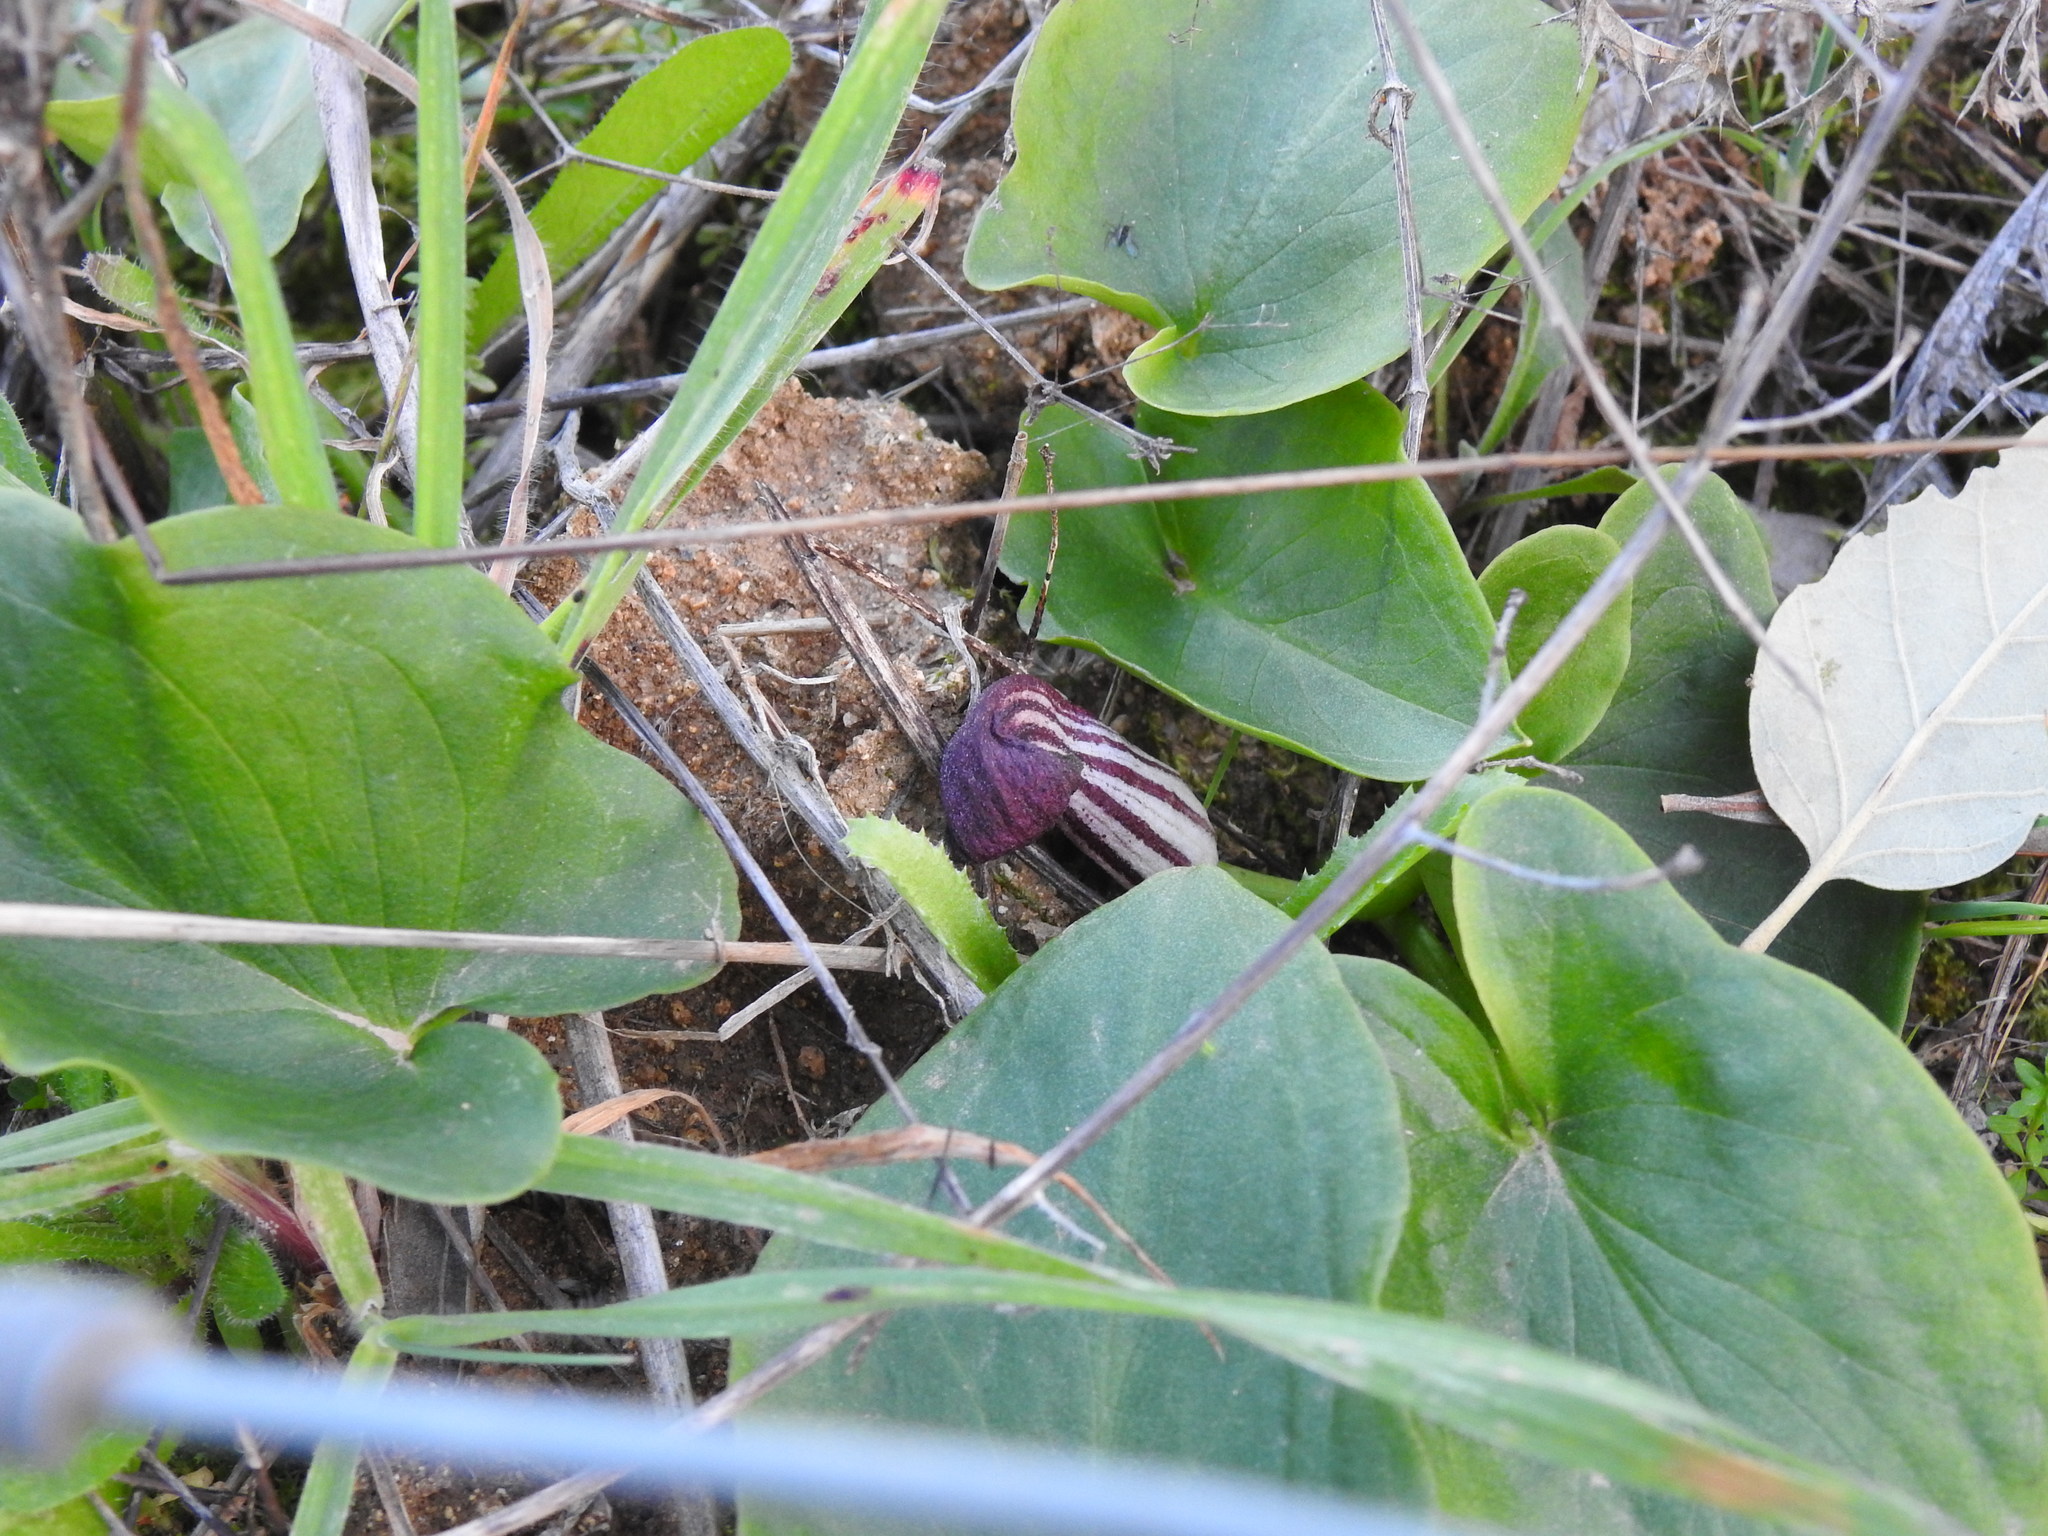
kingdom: Plantae
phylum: Tracheophyta
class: Liliopsida
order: Alismatales
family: Araceae
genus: Arisarum
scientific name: Arisarum simorrhinum
